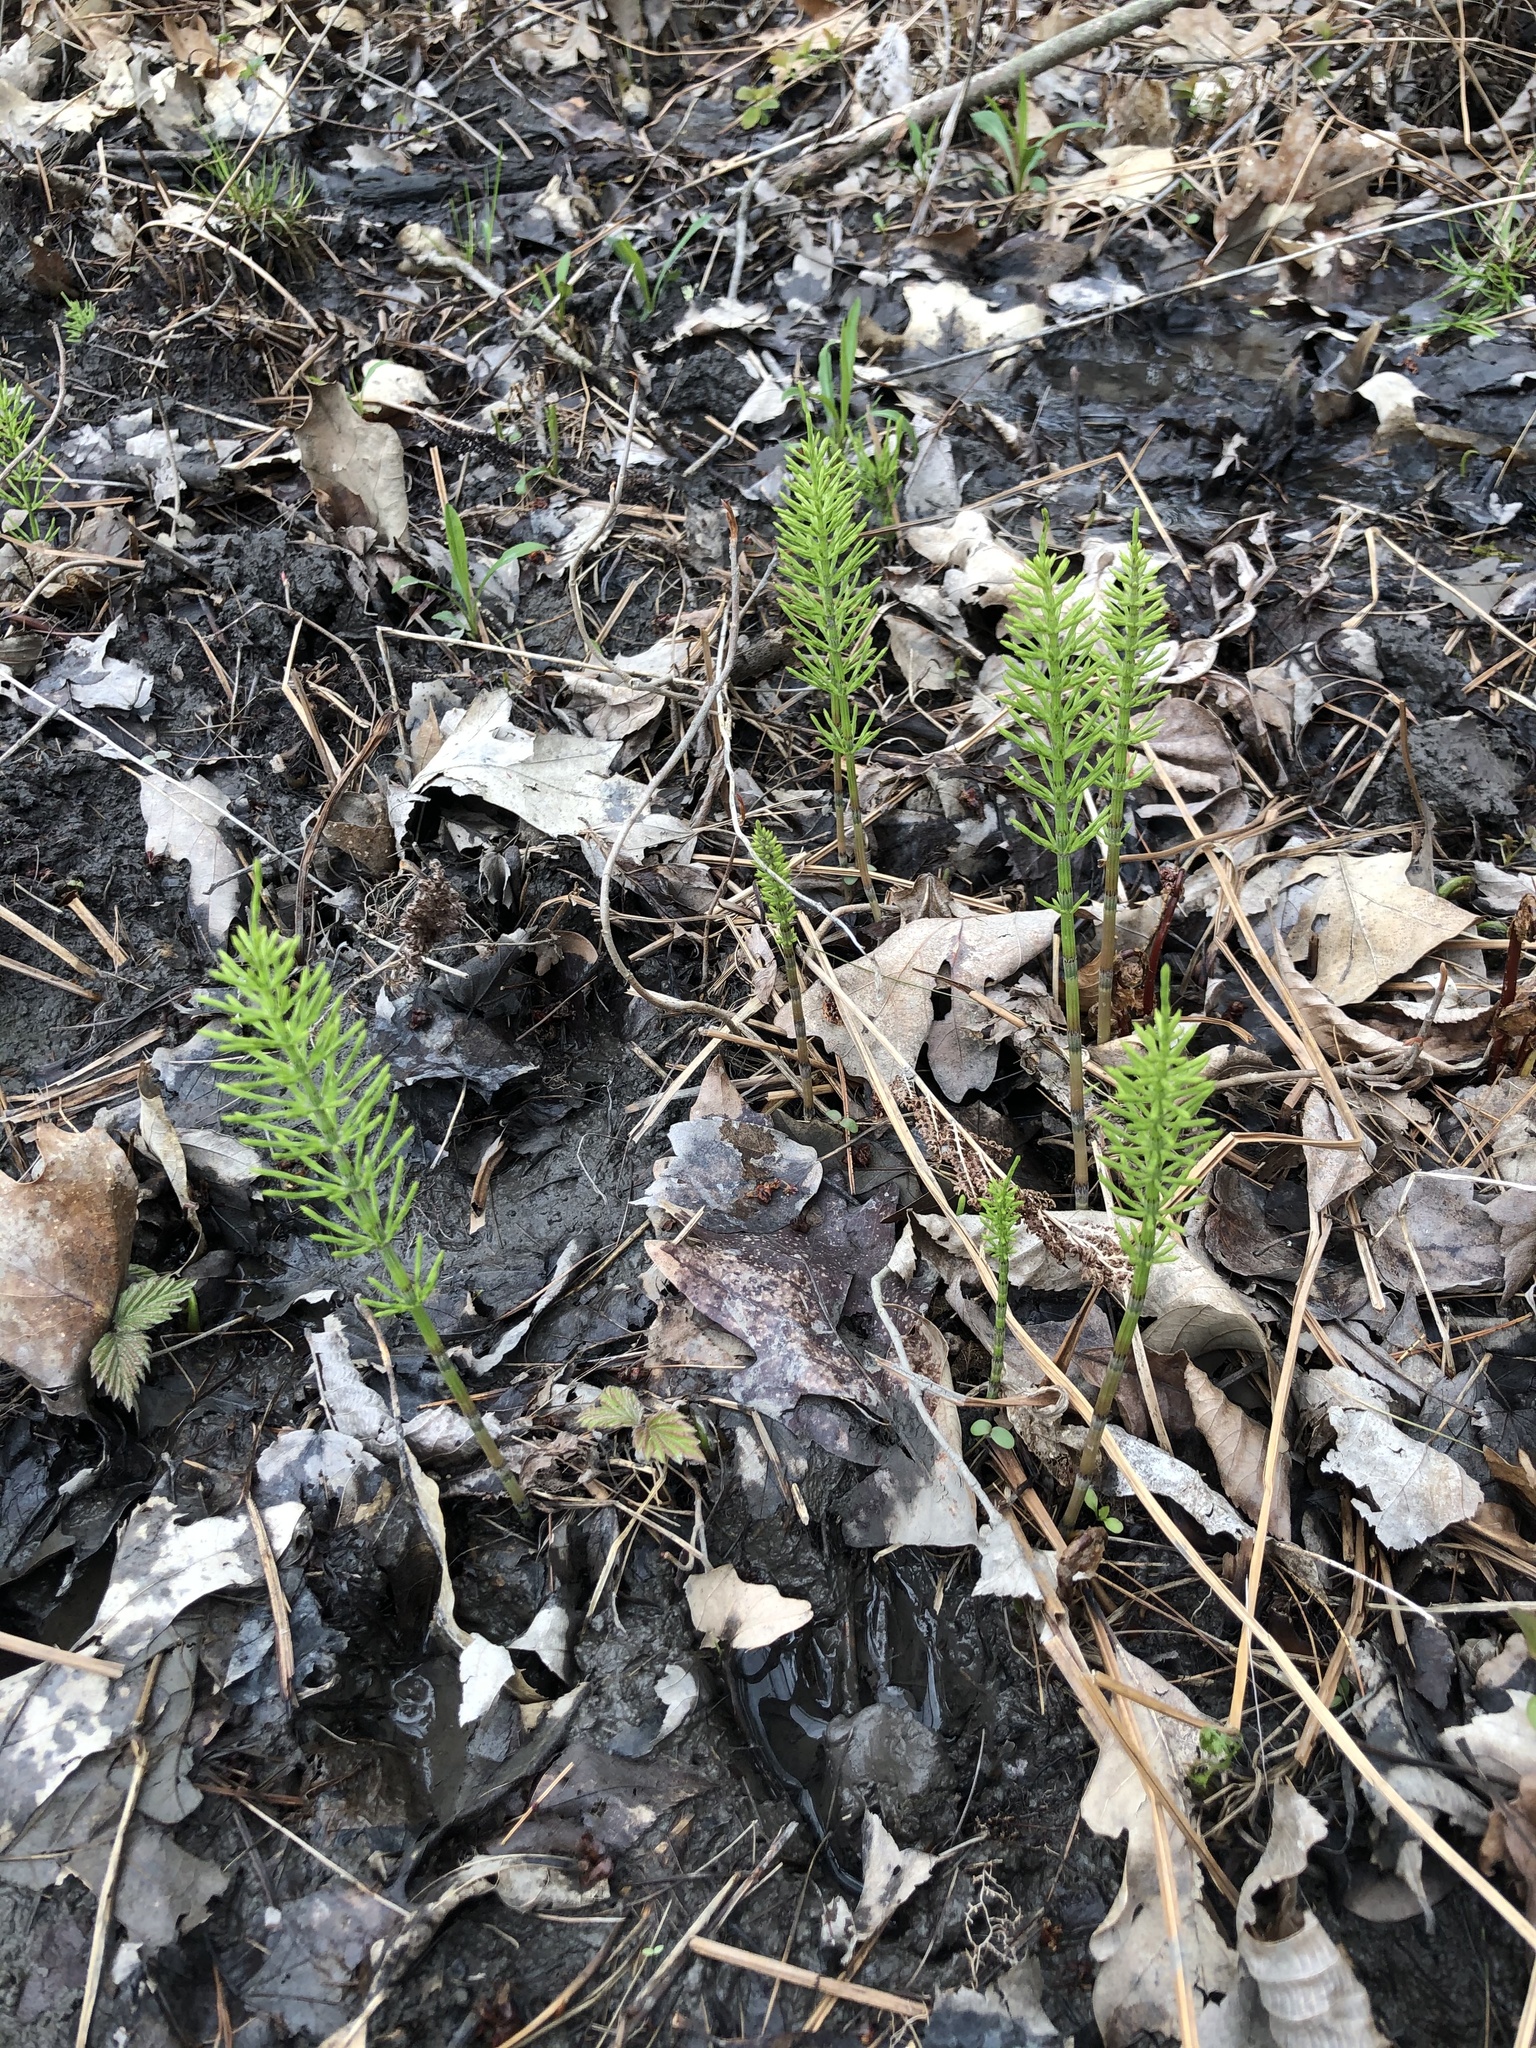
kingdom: Plantae
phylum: Tracheophyta
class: Polypodiopsida
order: Equisetales
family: Equisetaceae
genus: Equisetum
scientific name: Equisetum arvense
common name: Field horsetail
